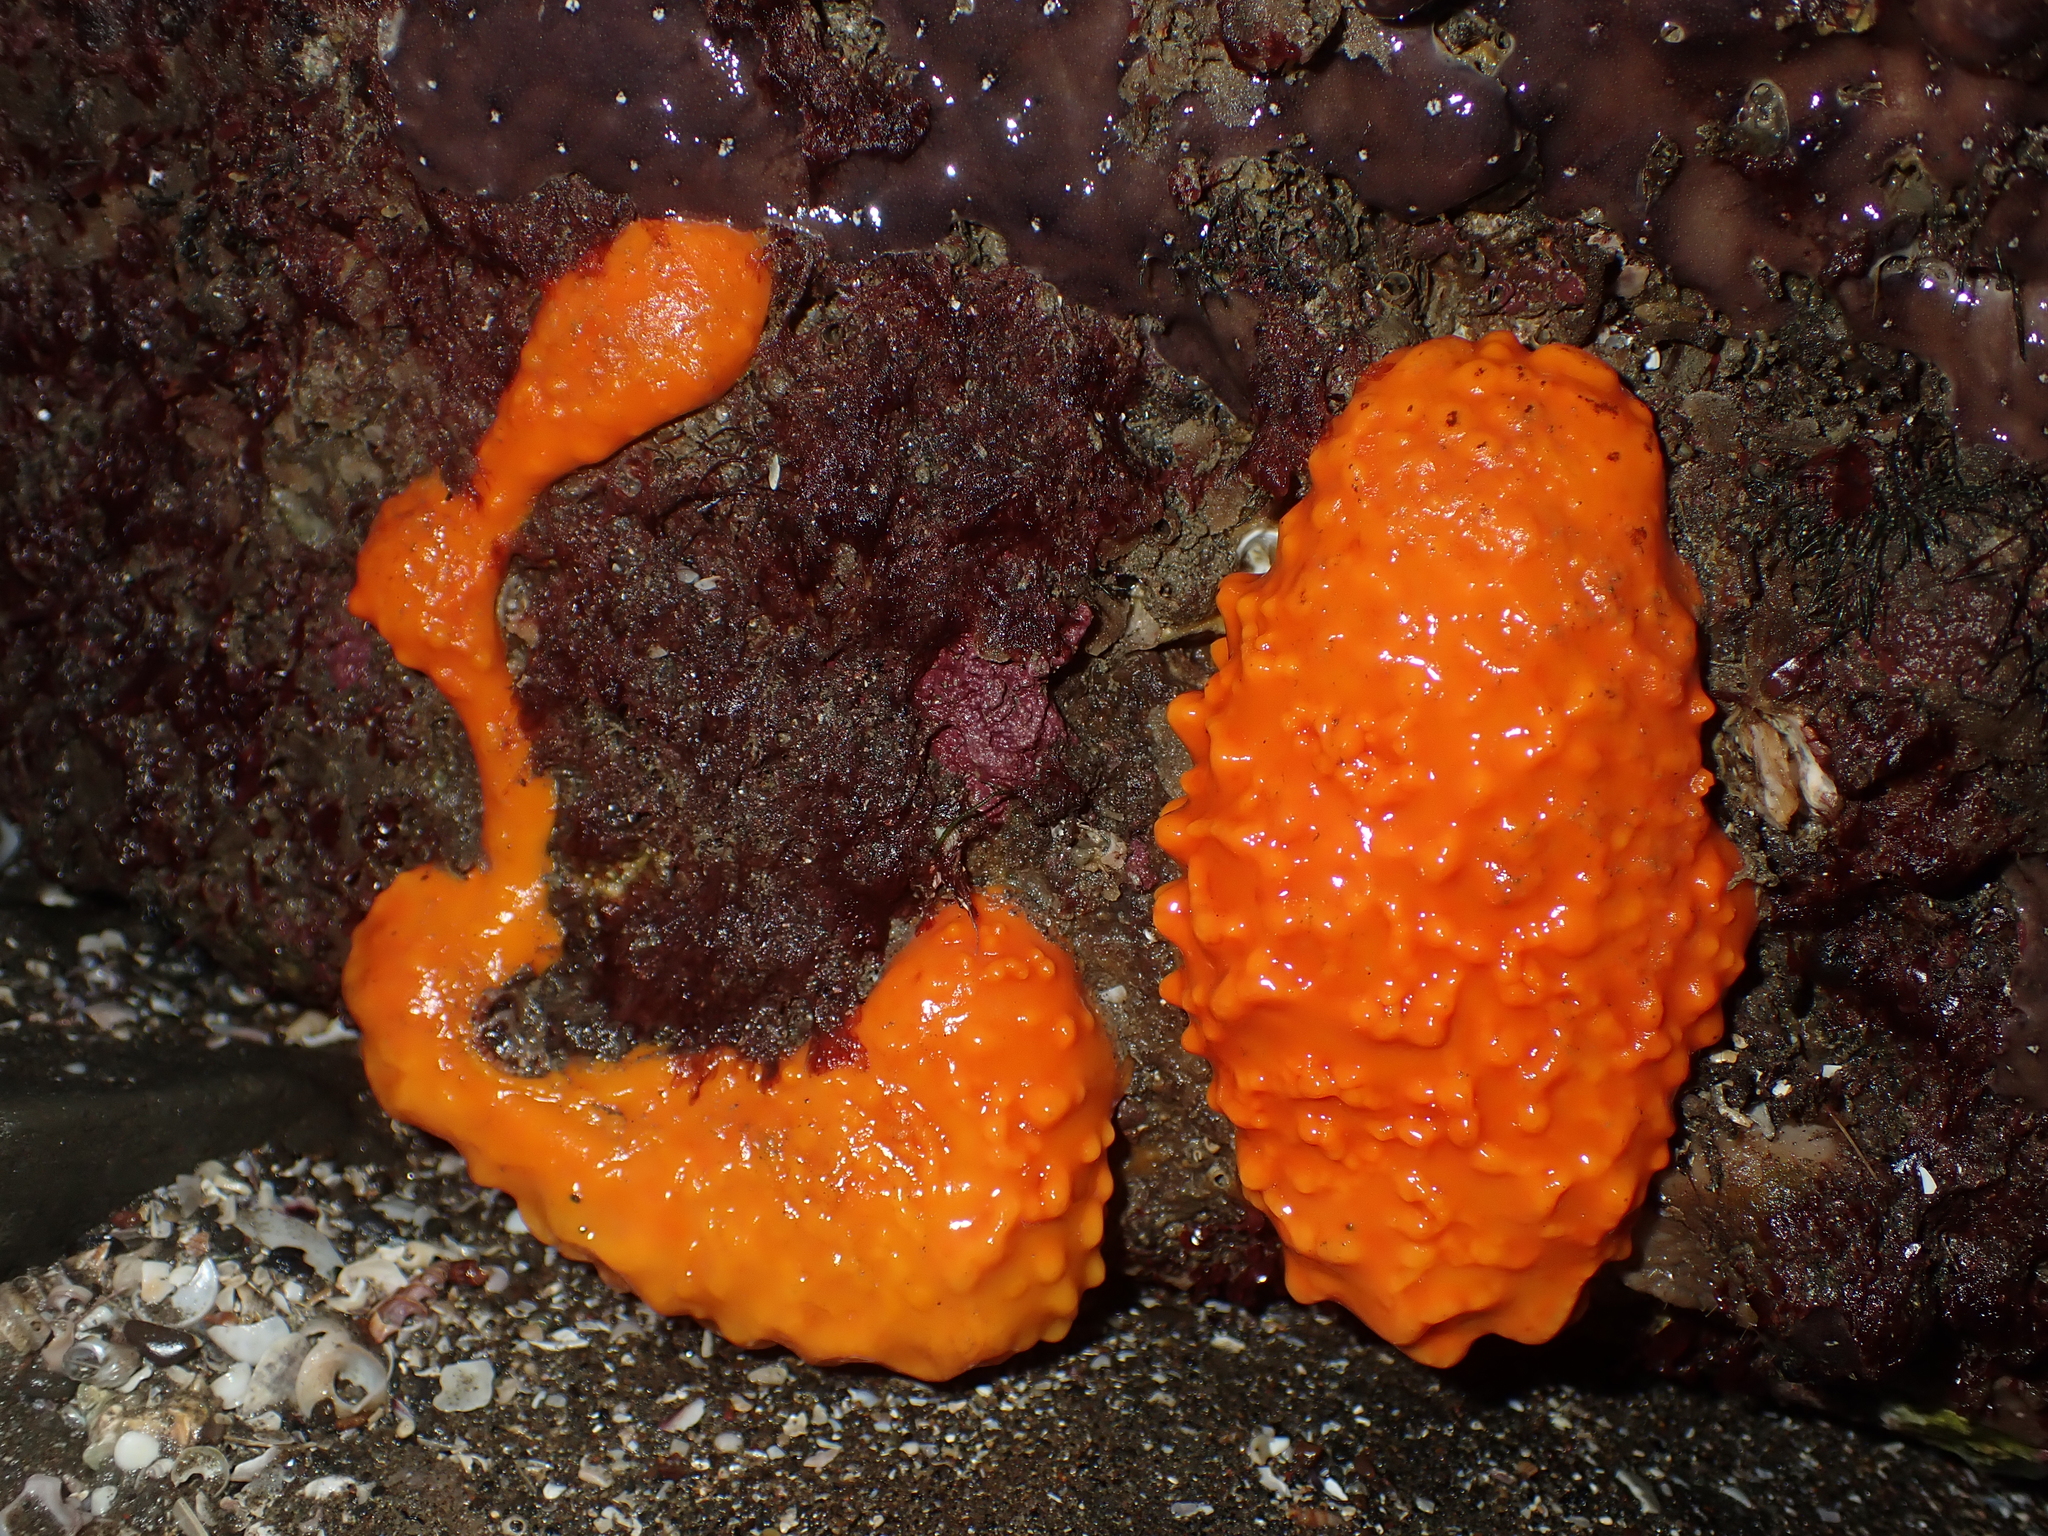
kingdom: Animalia
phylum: Porifera
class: Demospongiae
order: Polymastiida
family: Polymastiidae
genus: Polymastia
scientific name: Polymastia aurantia
